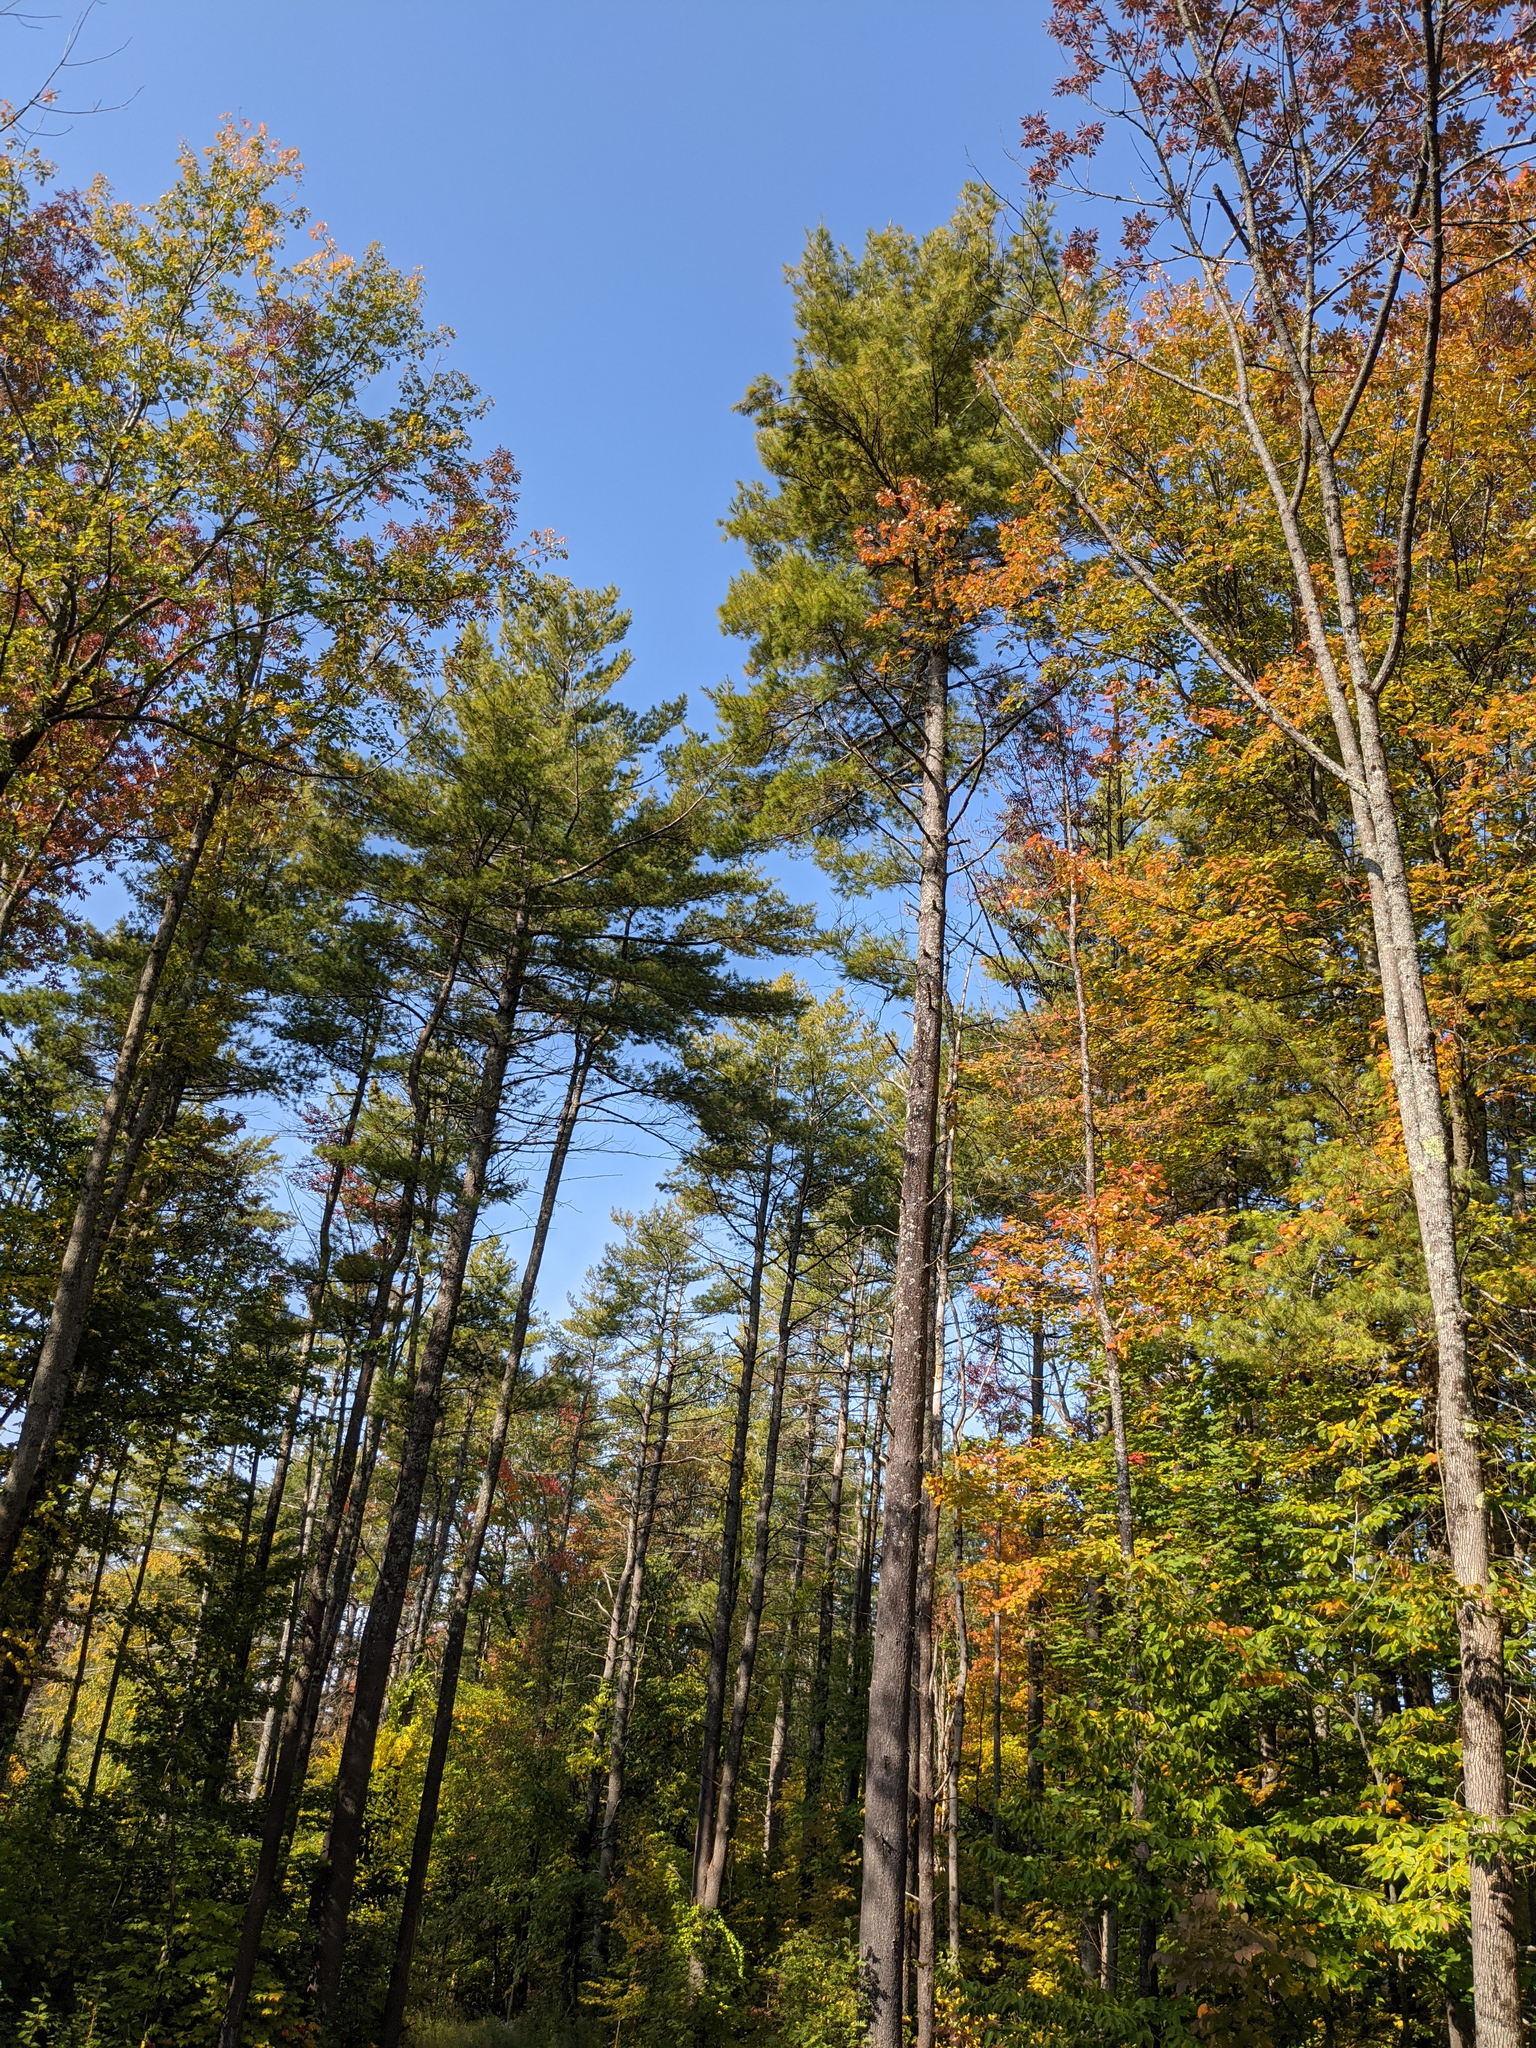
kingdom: Plantae
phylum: Tracheophyta
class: Pinopsida
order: Pinales
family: Pinaceae
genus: Pinus
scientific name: Pinus strobus
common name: Weymouth pine
